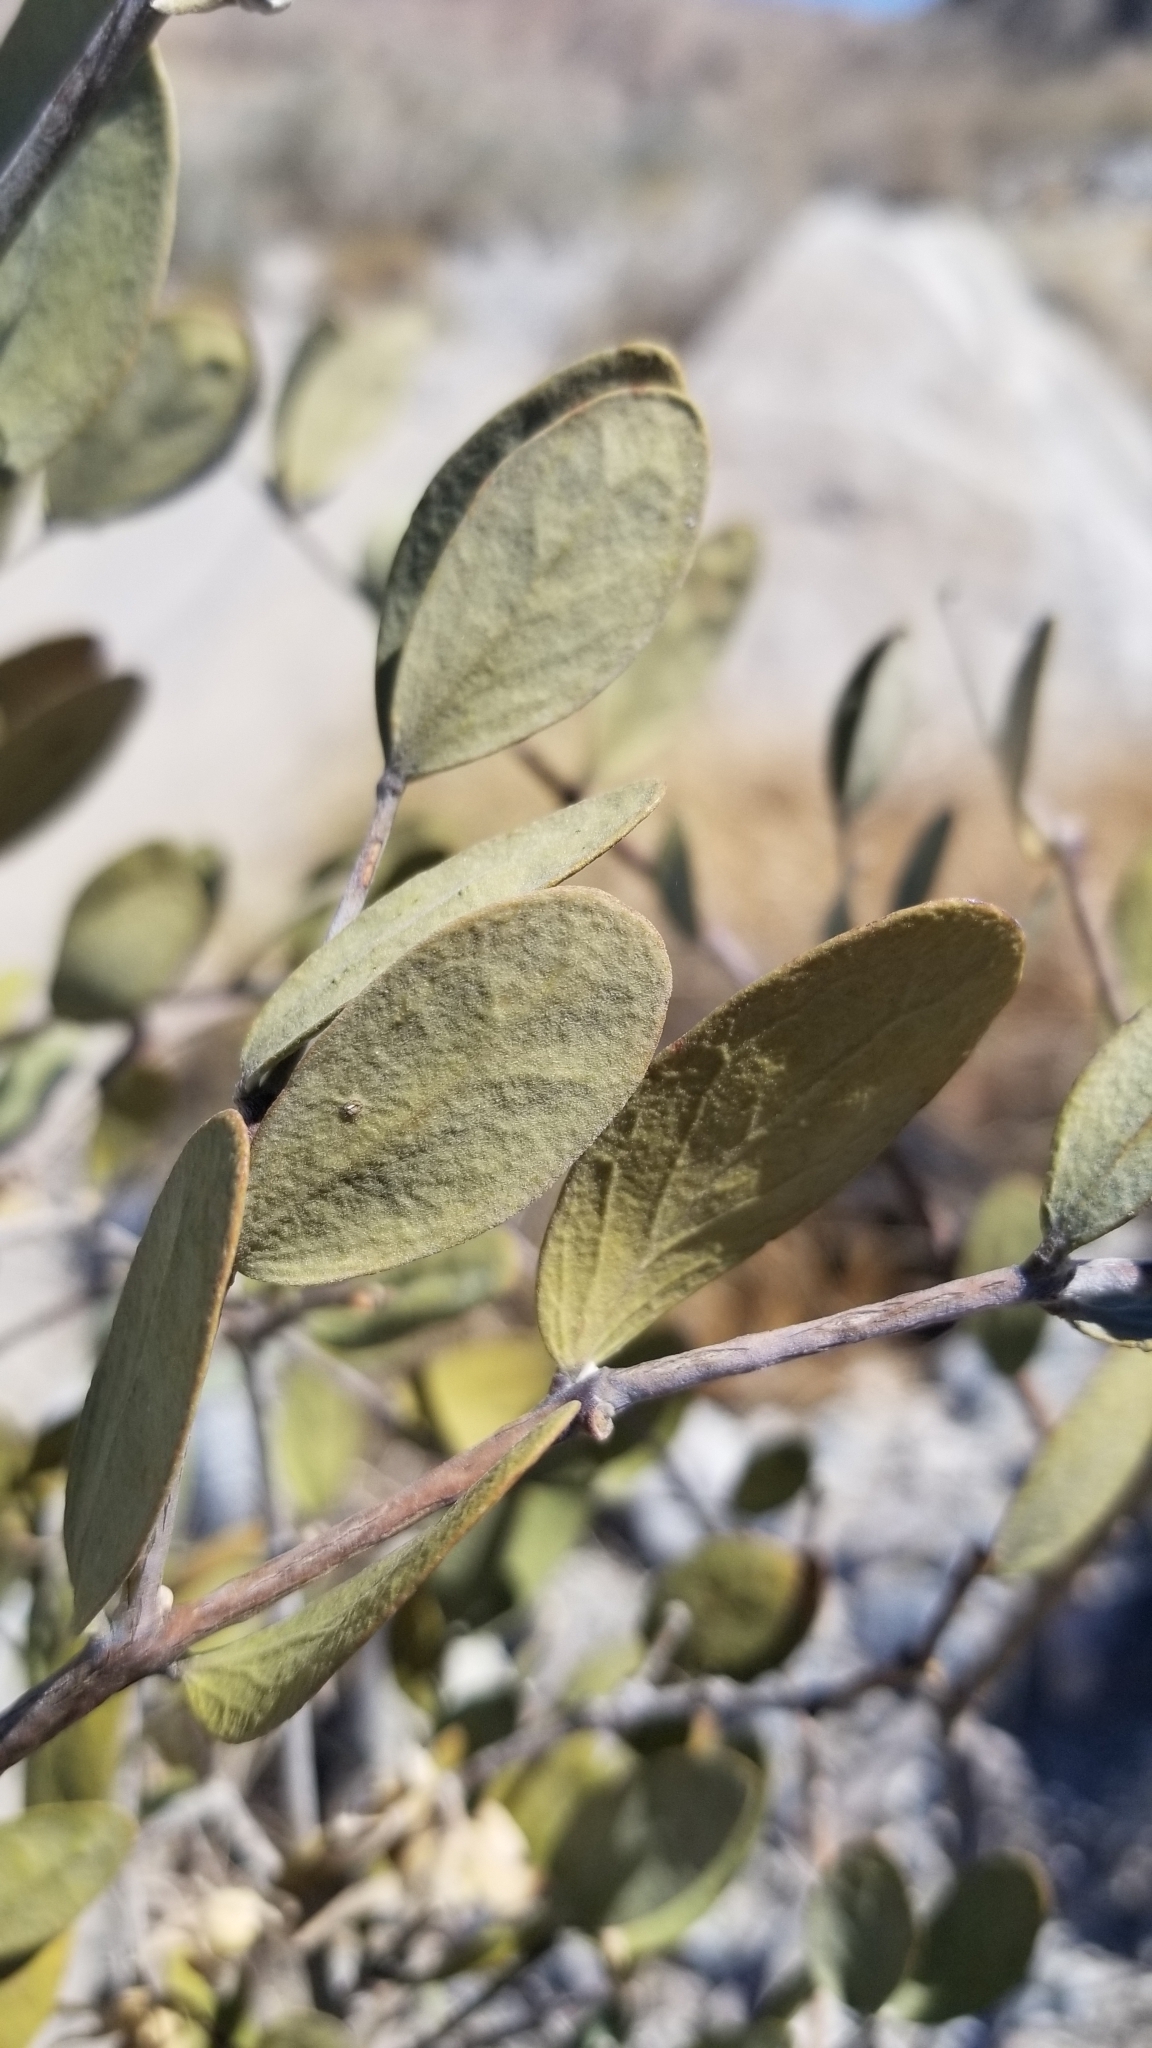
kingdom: Plantae
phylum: Tracheophyta
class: Magnoliopsida
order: Caryophyllales
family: Simmondsiaceae
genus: Simmondsia
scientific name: Simmondsia chinensis
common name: Jojoba
